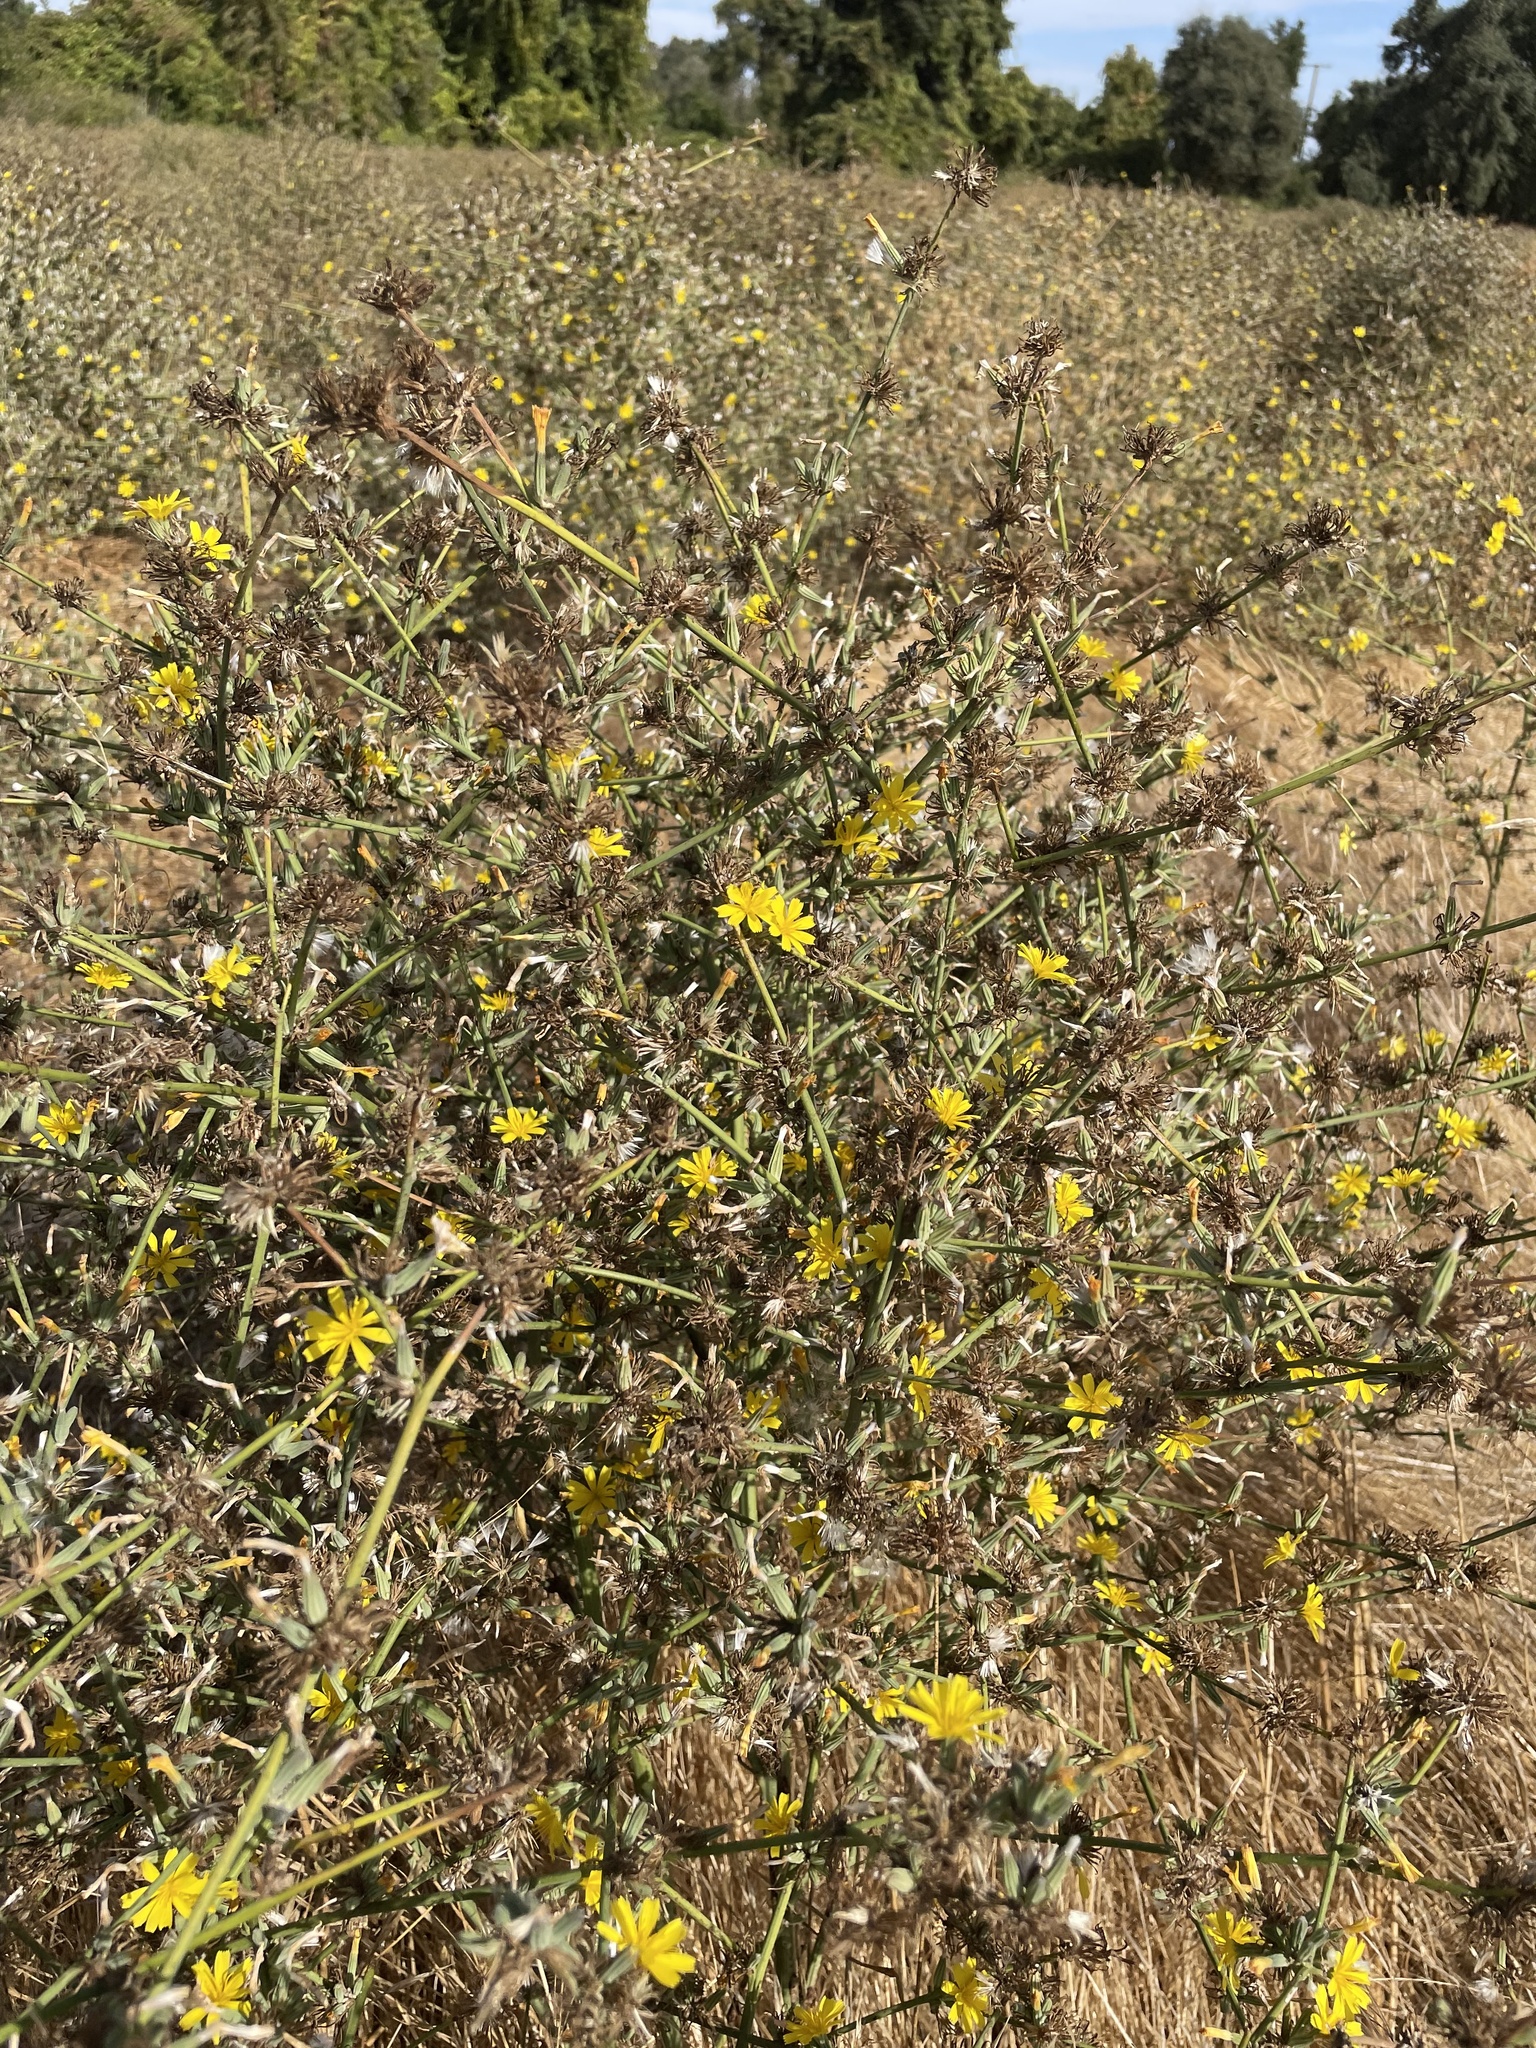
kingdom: Plantae
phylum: Tracheophyta
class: Magnoliopsida
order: Asterales
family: Asteraceae
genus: Chondrilla
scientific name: Chondrilla juncea
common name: Skeleton weed
